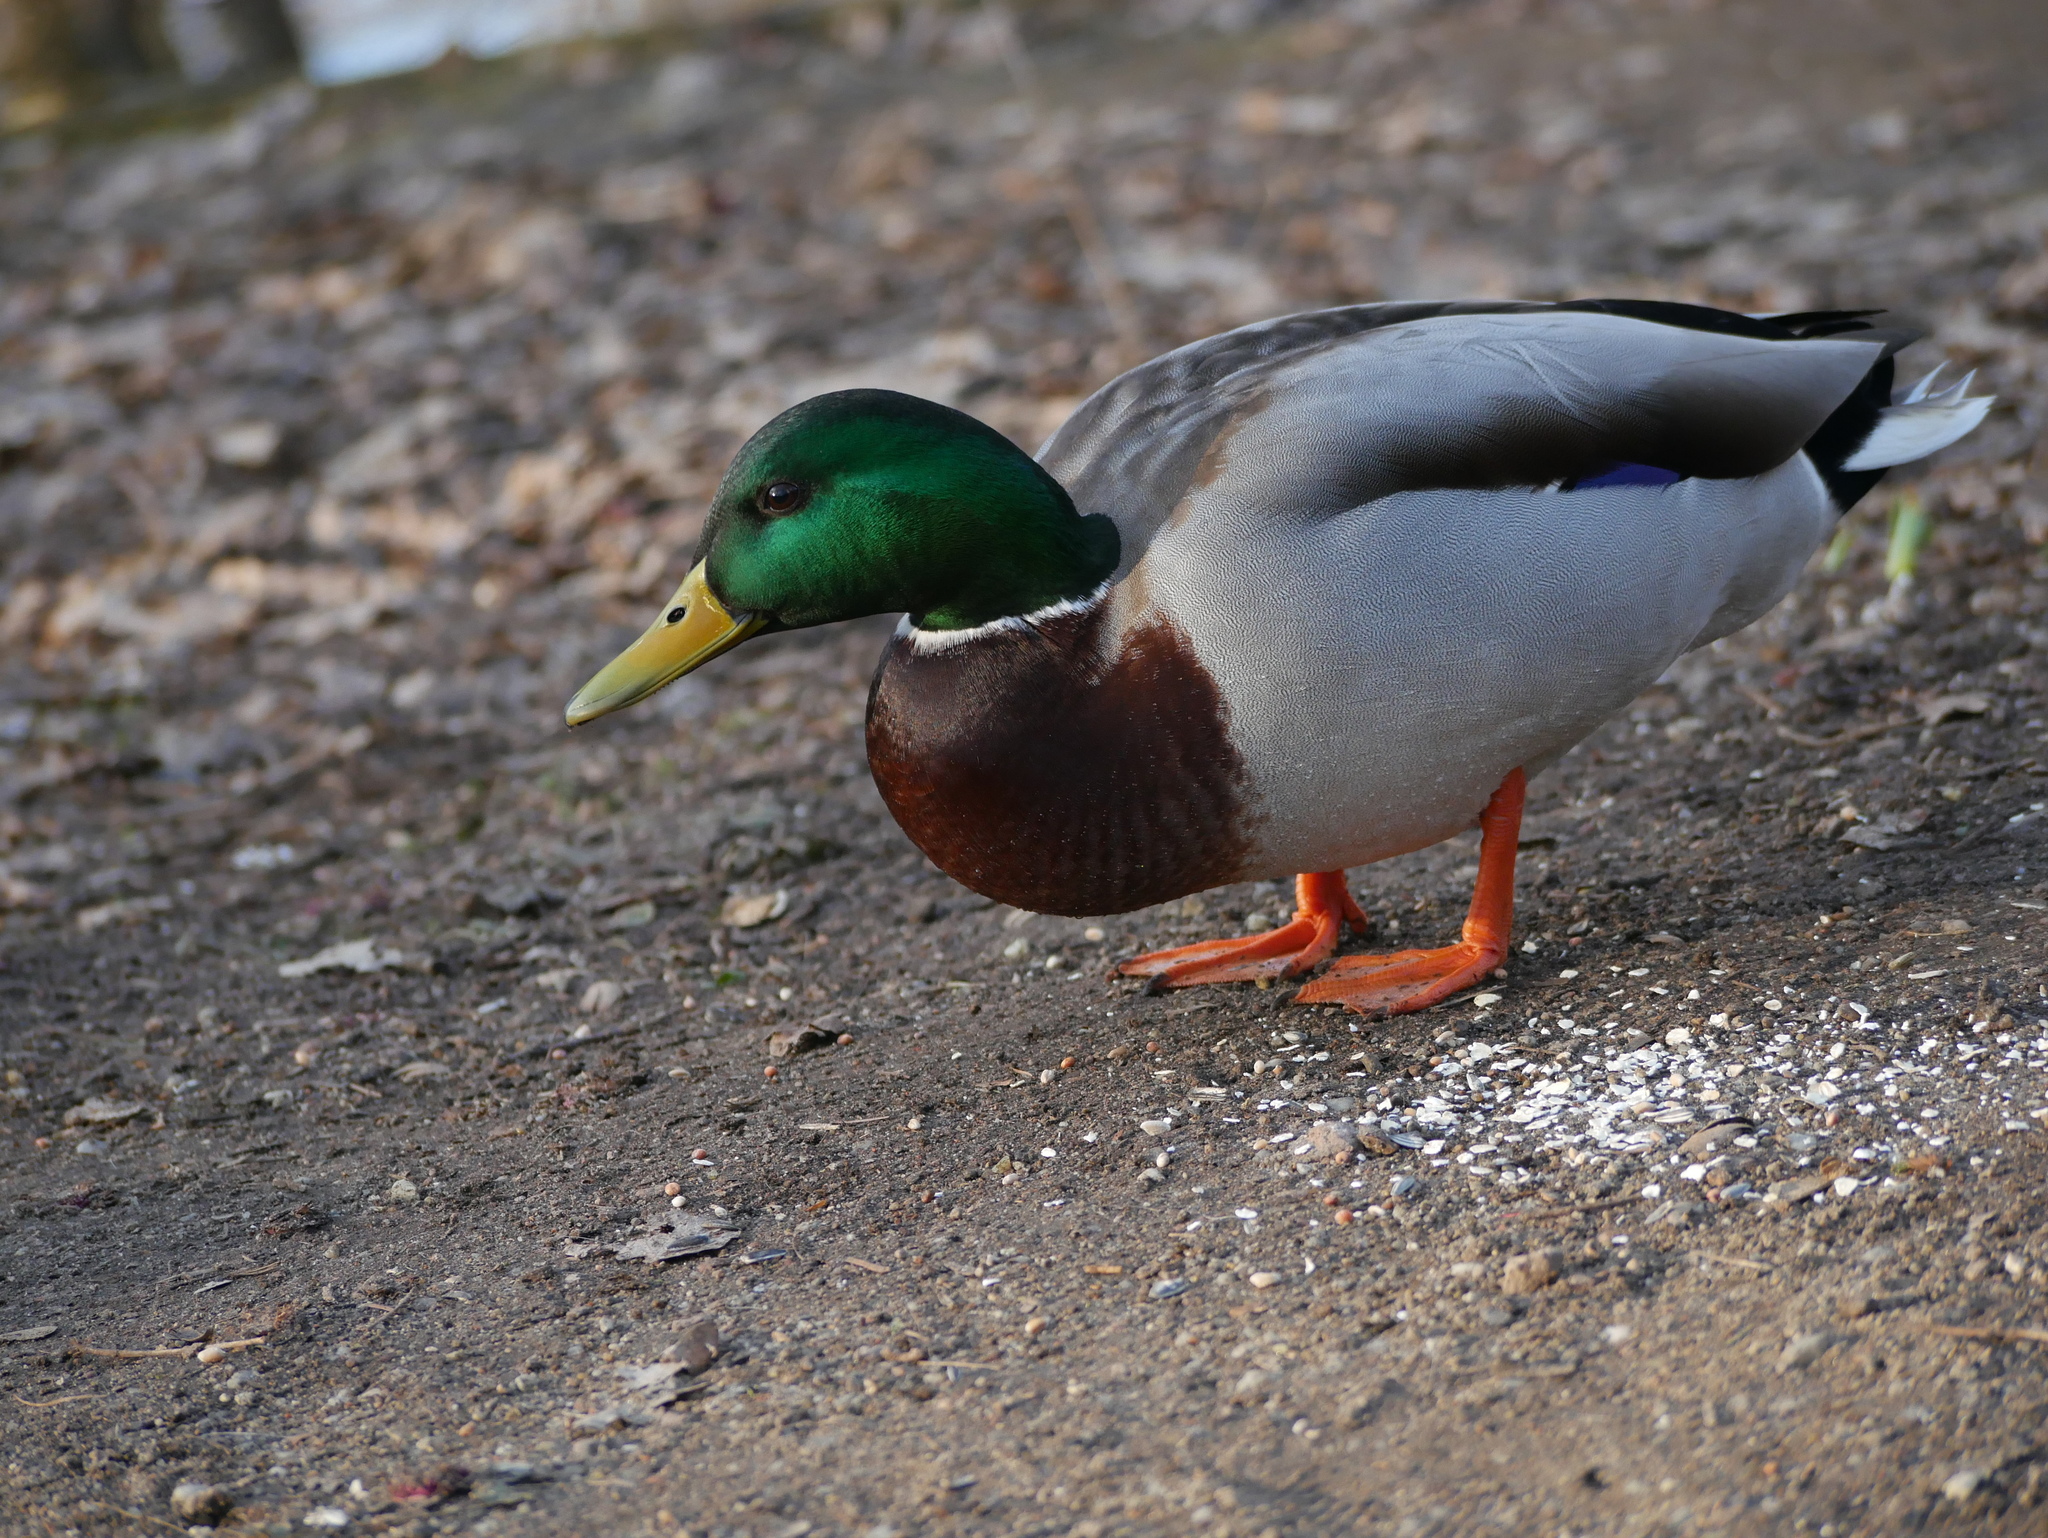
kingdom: Animalia
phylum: Chordata
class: Aves
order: Anseriformes
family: Anatidae
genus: Anas
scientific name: Anas platyrhynchos
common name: Mallard
